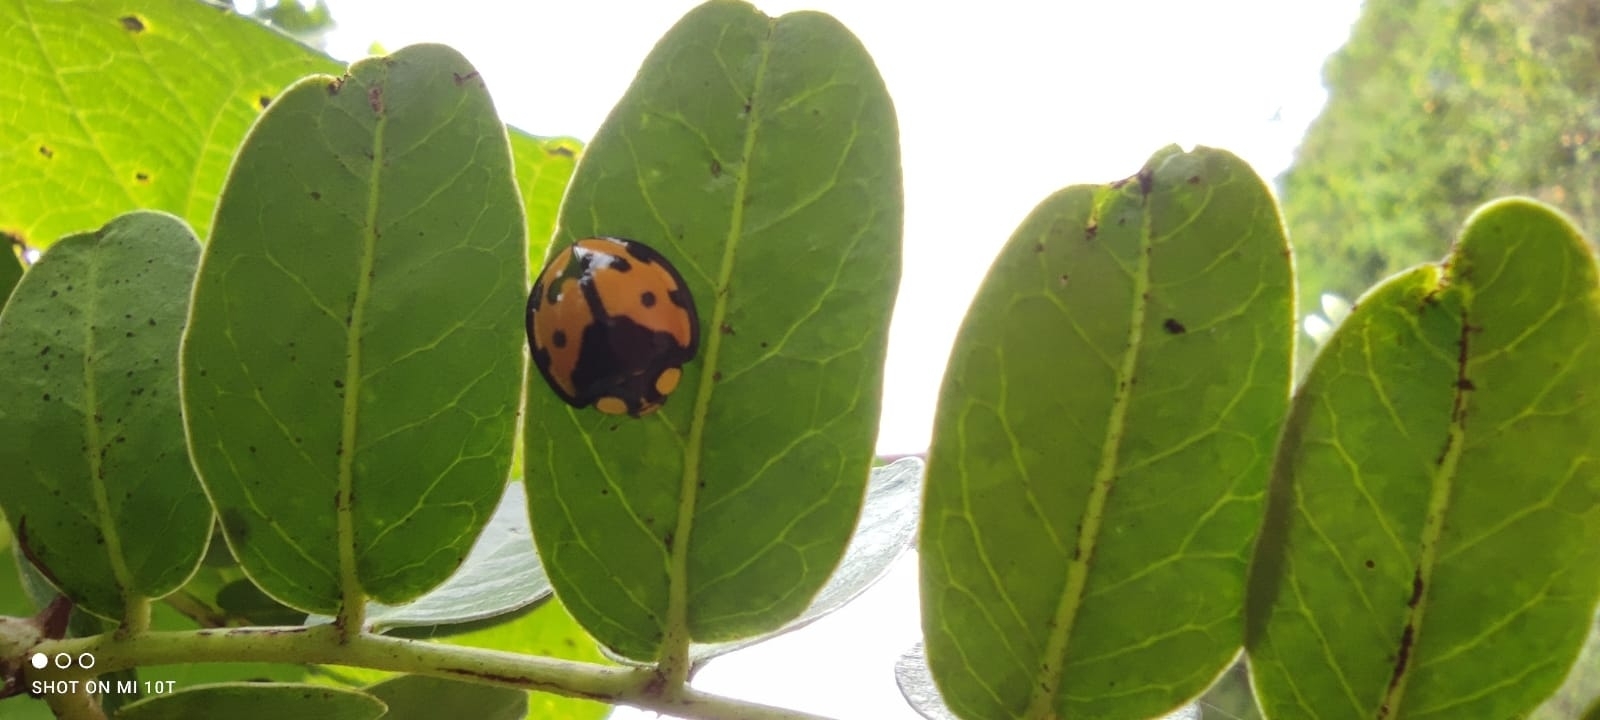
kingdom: Animalia
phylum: Arthropoda
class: Insecta
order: Coleoptera
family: Coccinellidae
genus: Neda
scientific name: Neda norrisi
